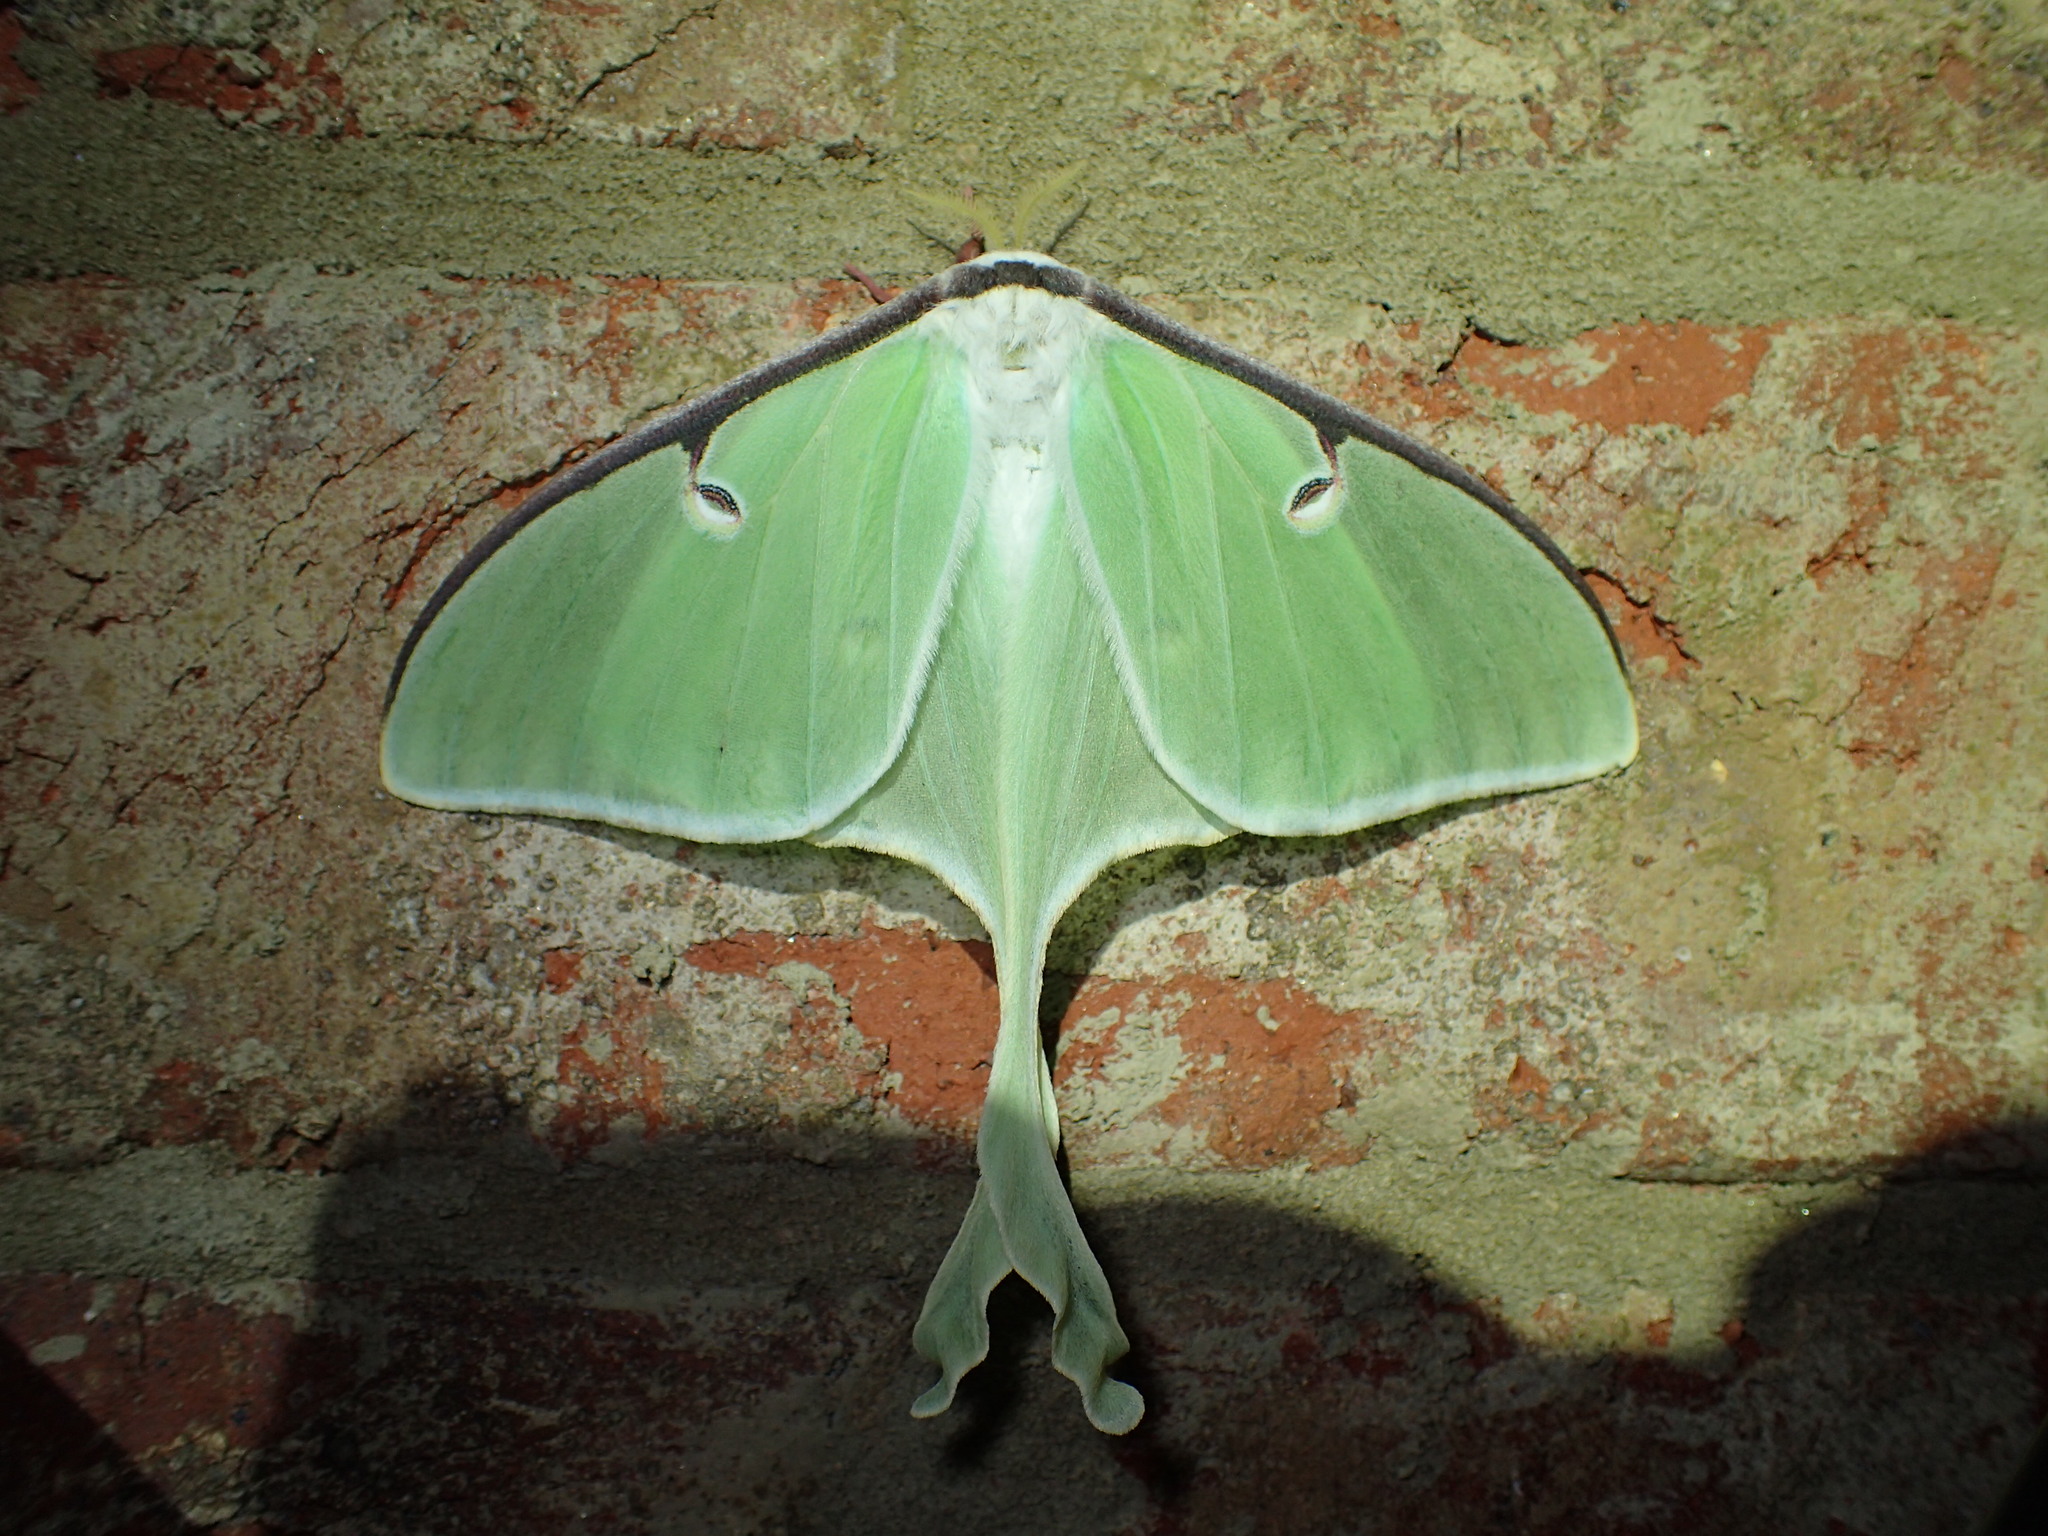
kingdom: Animalia
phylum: Arthropoda
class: Insecta
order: Lepidoptera
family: Saturniidae
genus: Actias
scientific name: Actias luna
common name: Luna moth
